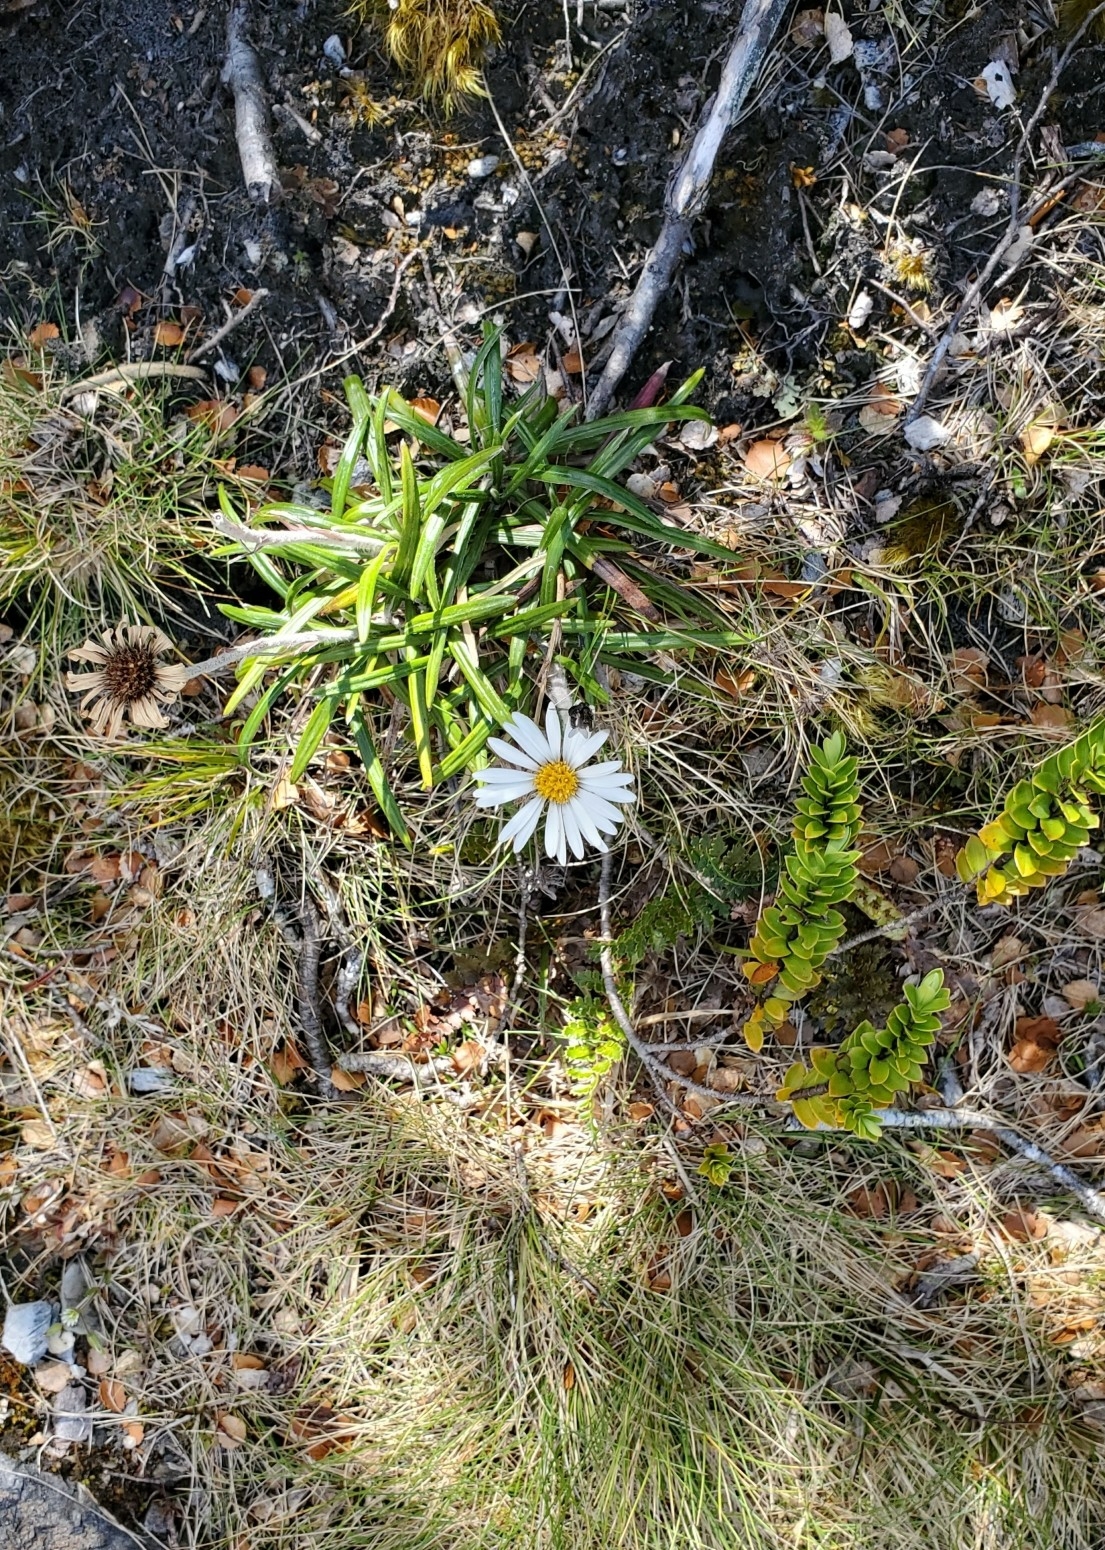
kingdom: Plantae
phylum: Tracheophyta
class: Magnoliopsida
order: Asterales
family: Asteraceae
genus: Celmisia
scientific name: Celmisia spectabilis
